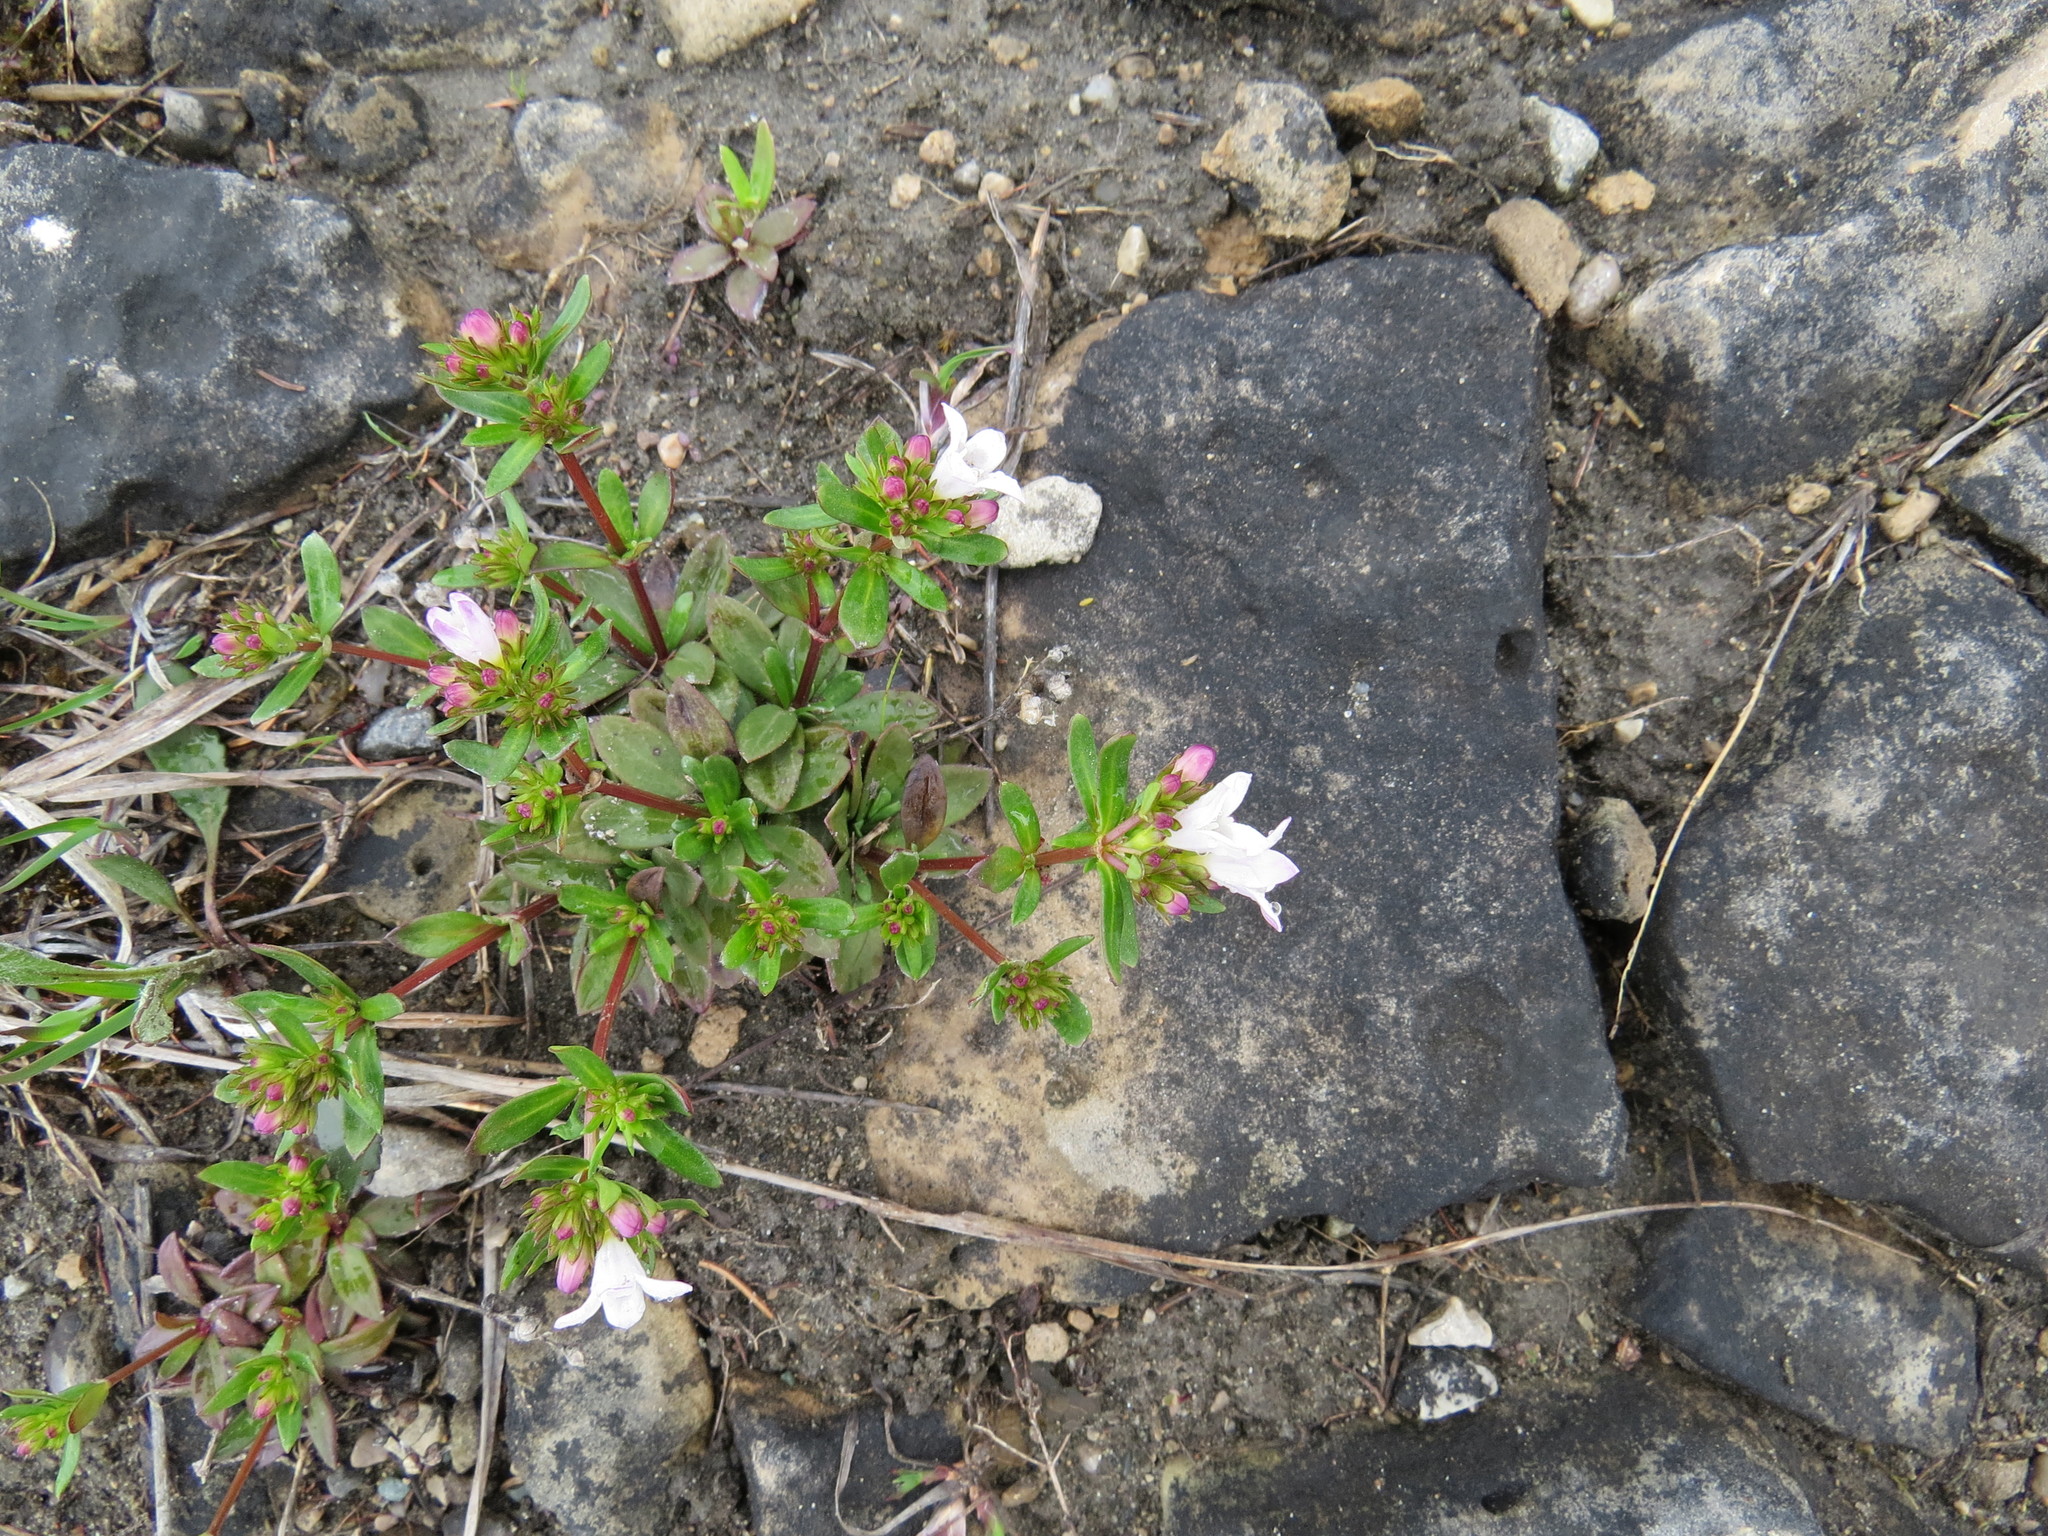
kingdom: Plantae
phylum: Tracheophyta
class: Magnoliopsida
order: Gentianales
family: Rubiaceae
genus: Houstonia
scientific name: Houstonia canadensis
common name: Fringed houstonia
